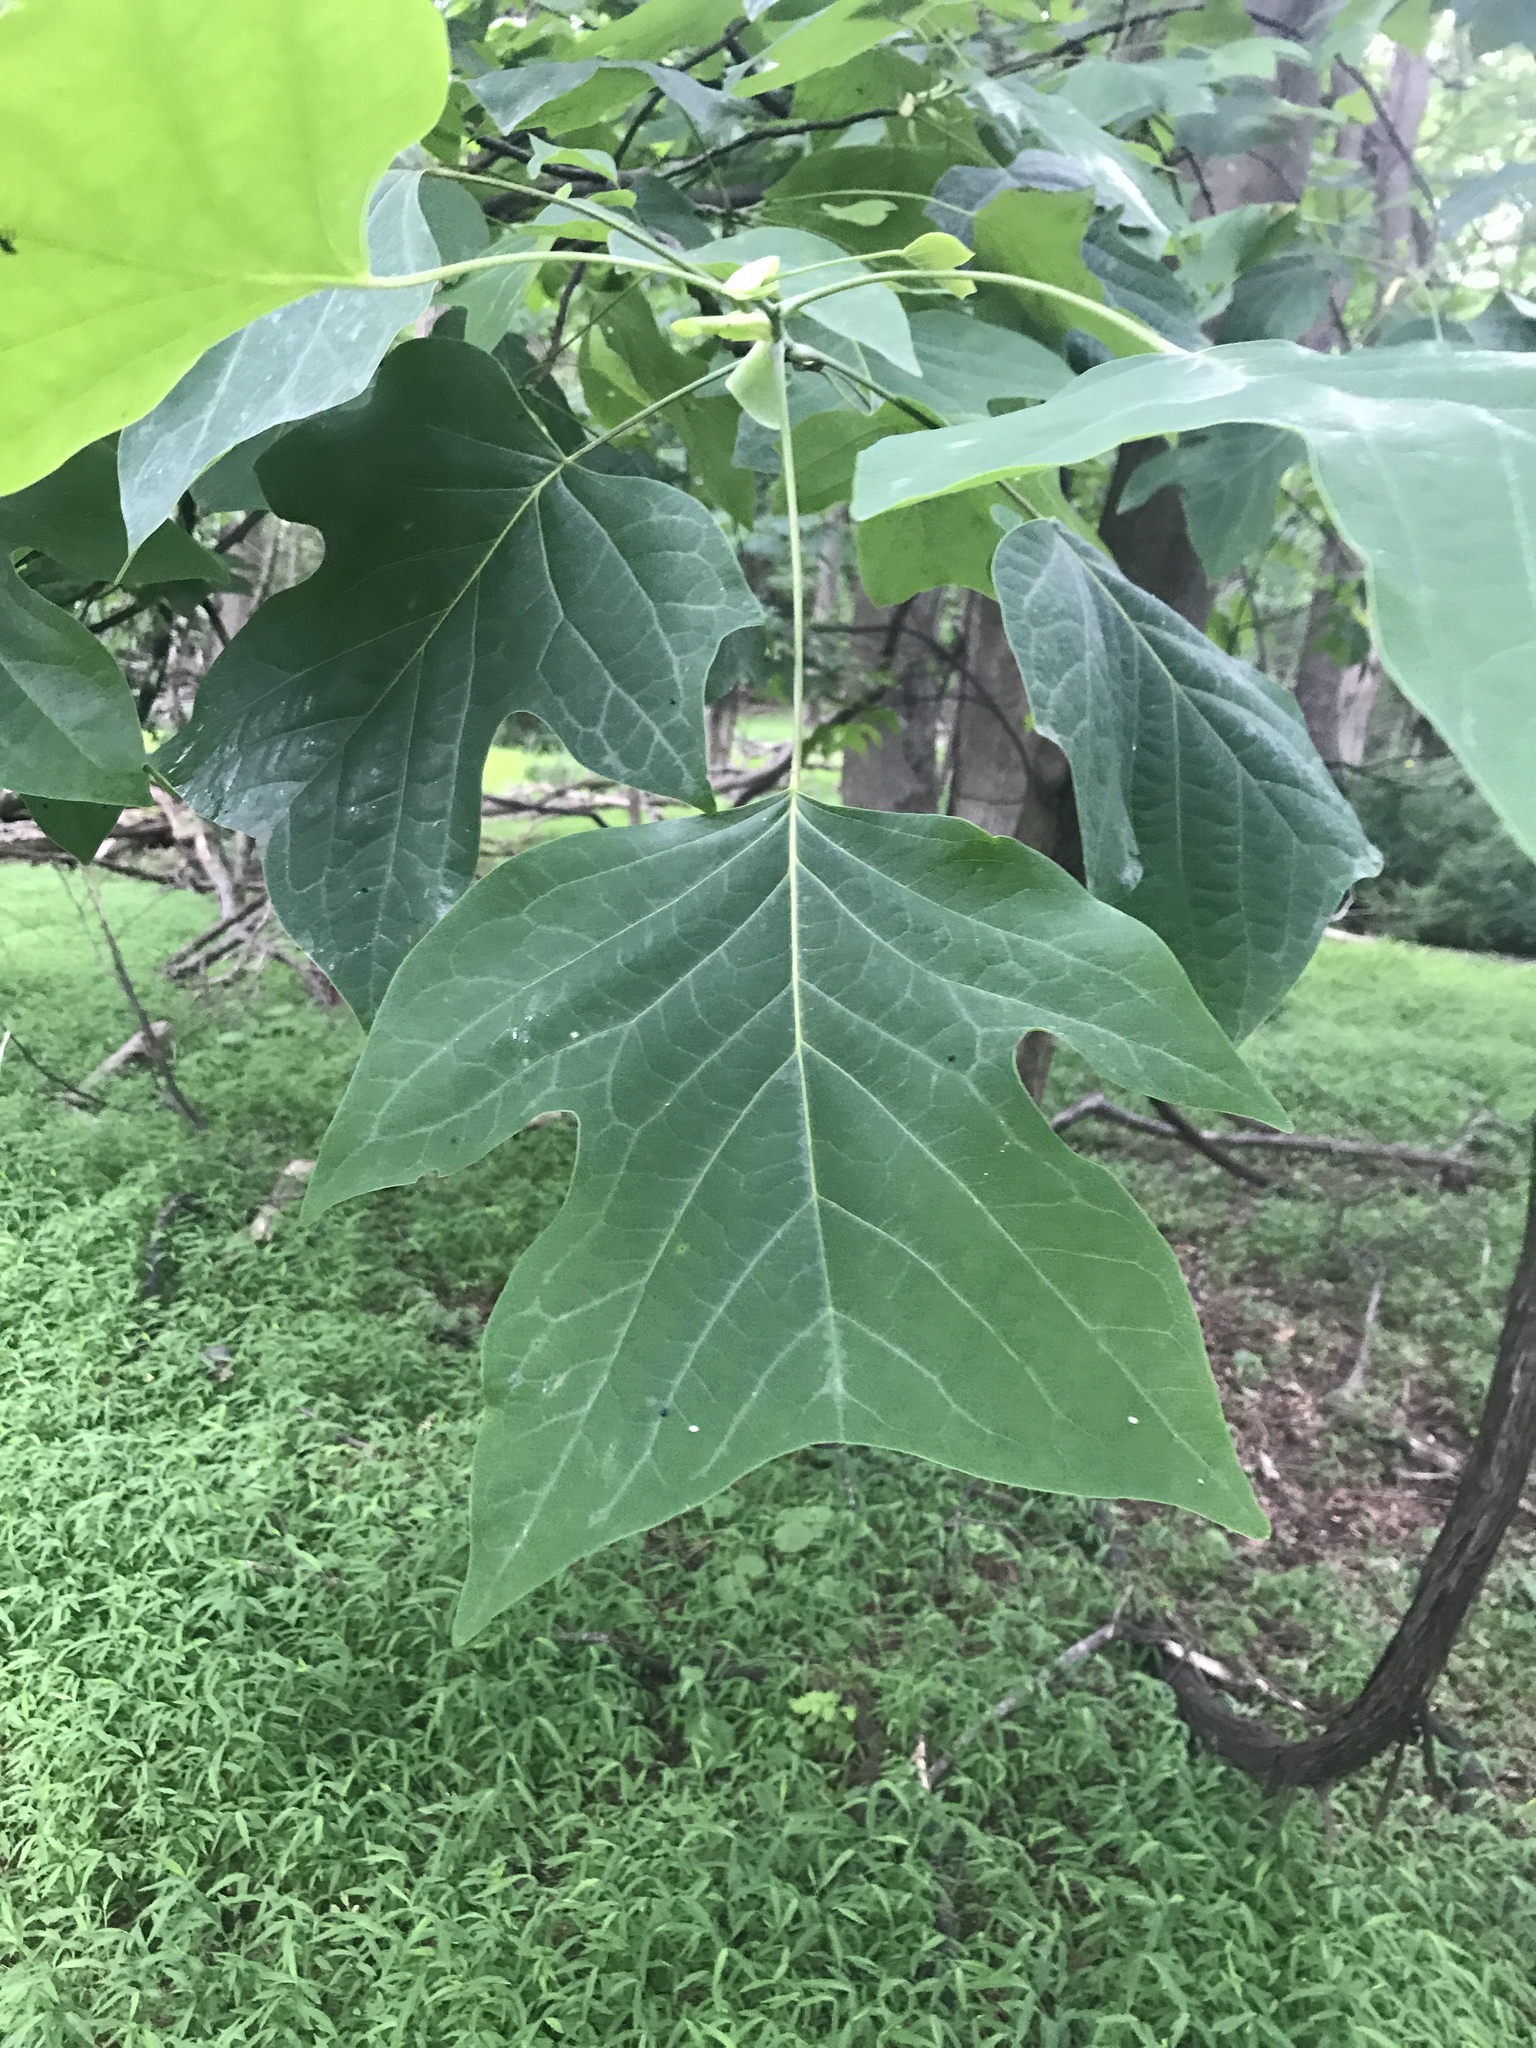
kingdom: Plantae
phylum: Tracheophyta
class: Magnoliopsida
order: Magnoliales
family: Magnoliaceae
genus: Liriodendron
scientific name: Liriodendron tulipifera
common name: Tulip tree
